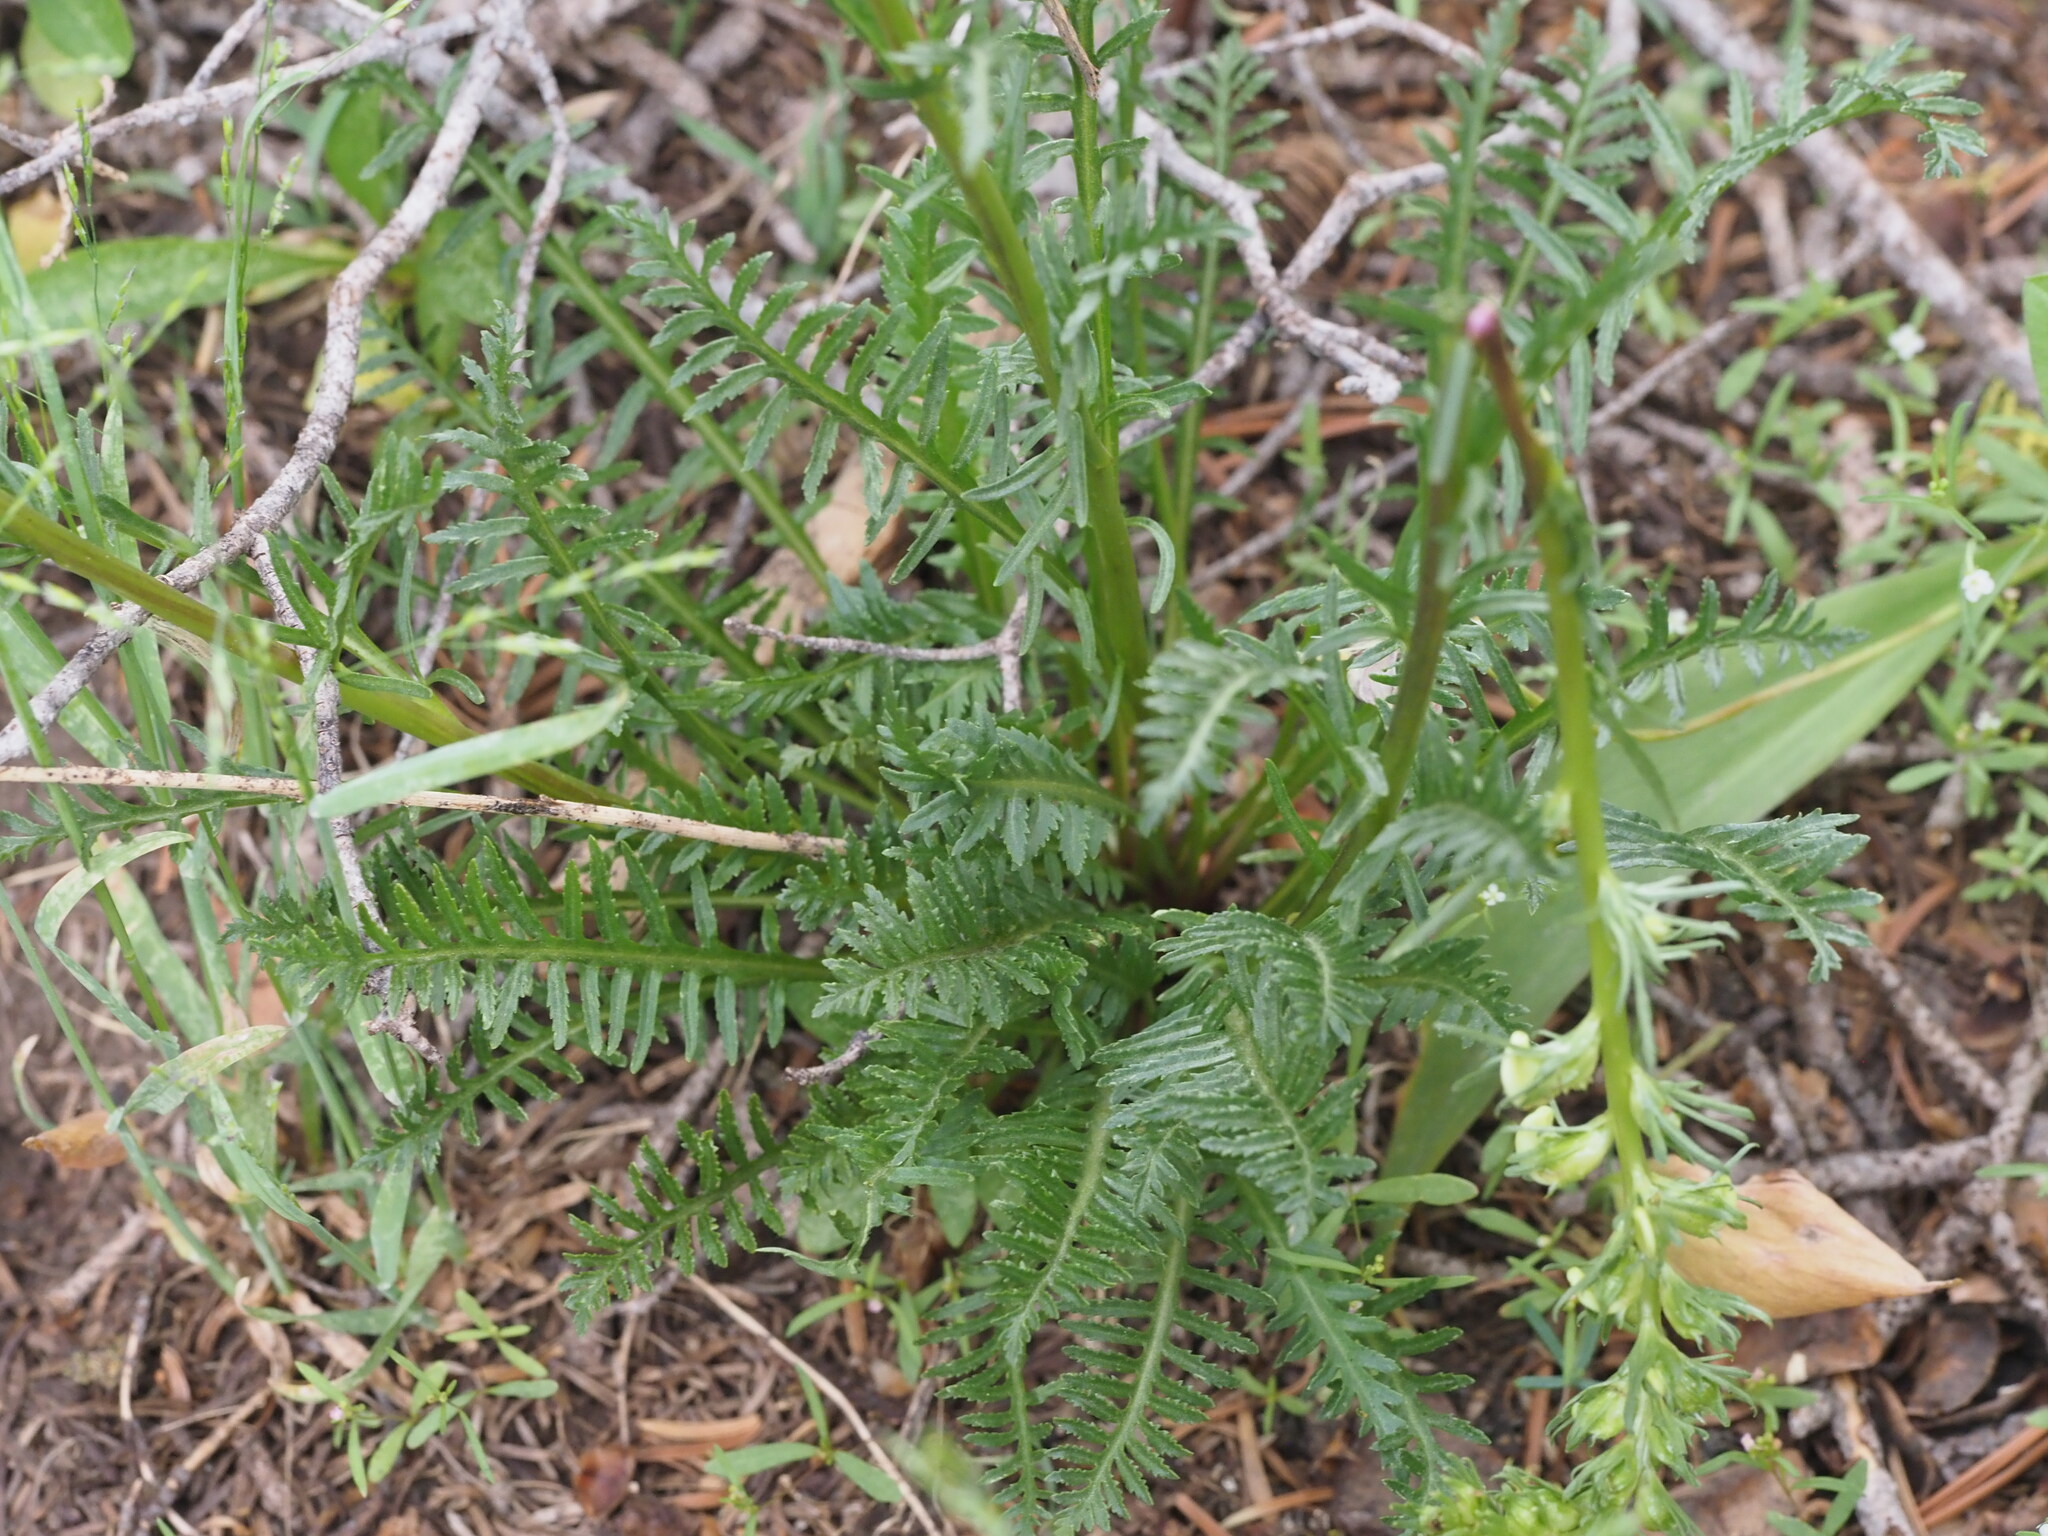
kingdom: Plantae
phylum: Tracheophyta
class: Magnoliopsida
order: Lamiales
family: Orobanchaceae
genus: Pedicularis
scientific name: Pedicularis contorta
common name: Coiled lousewort
